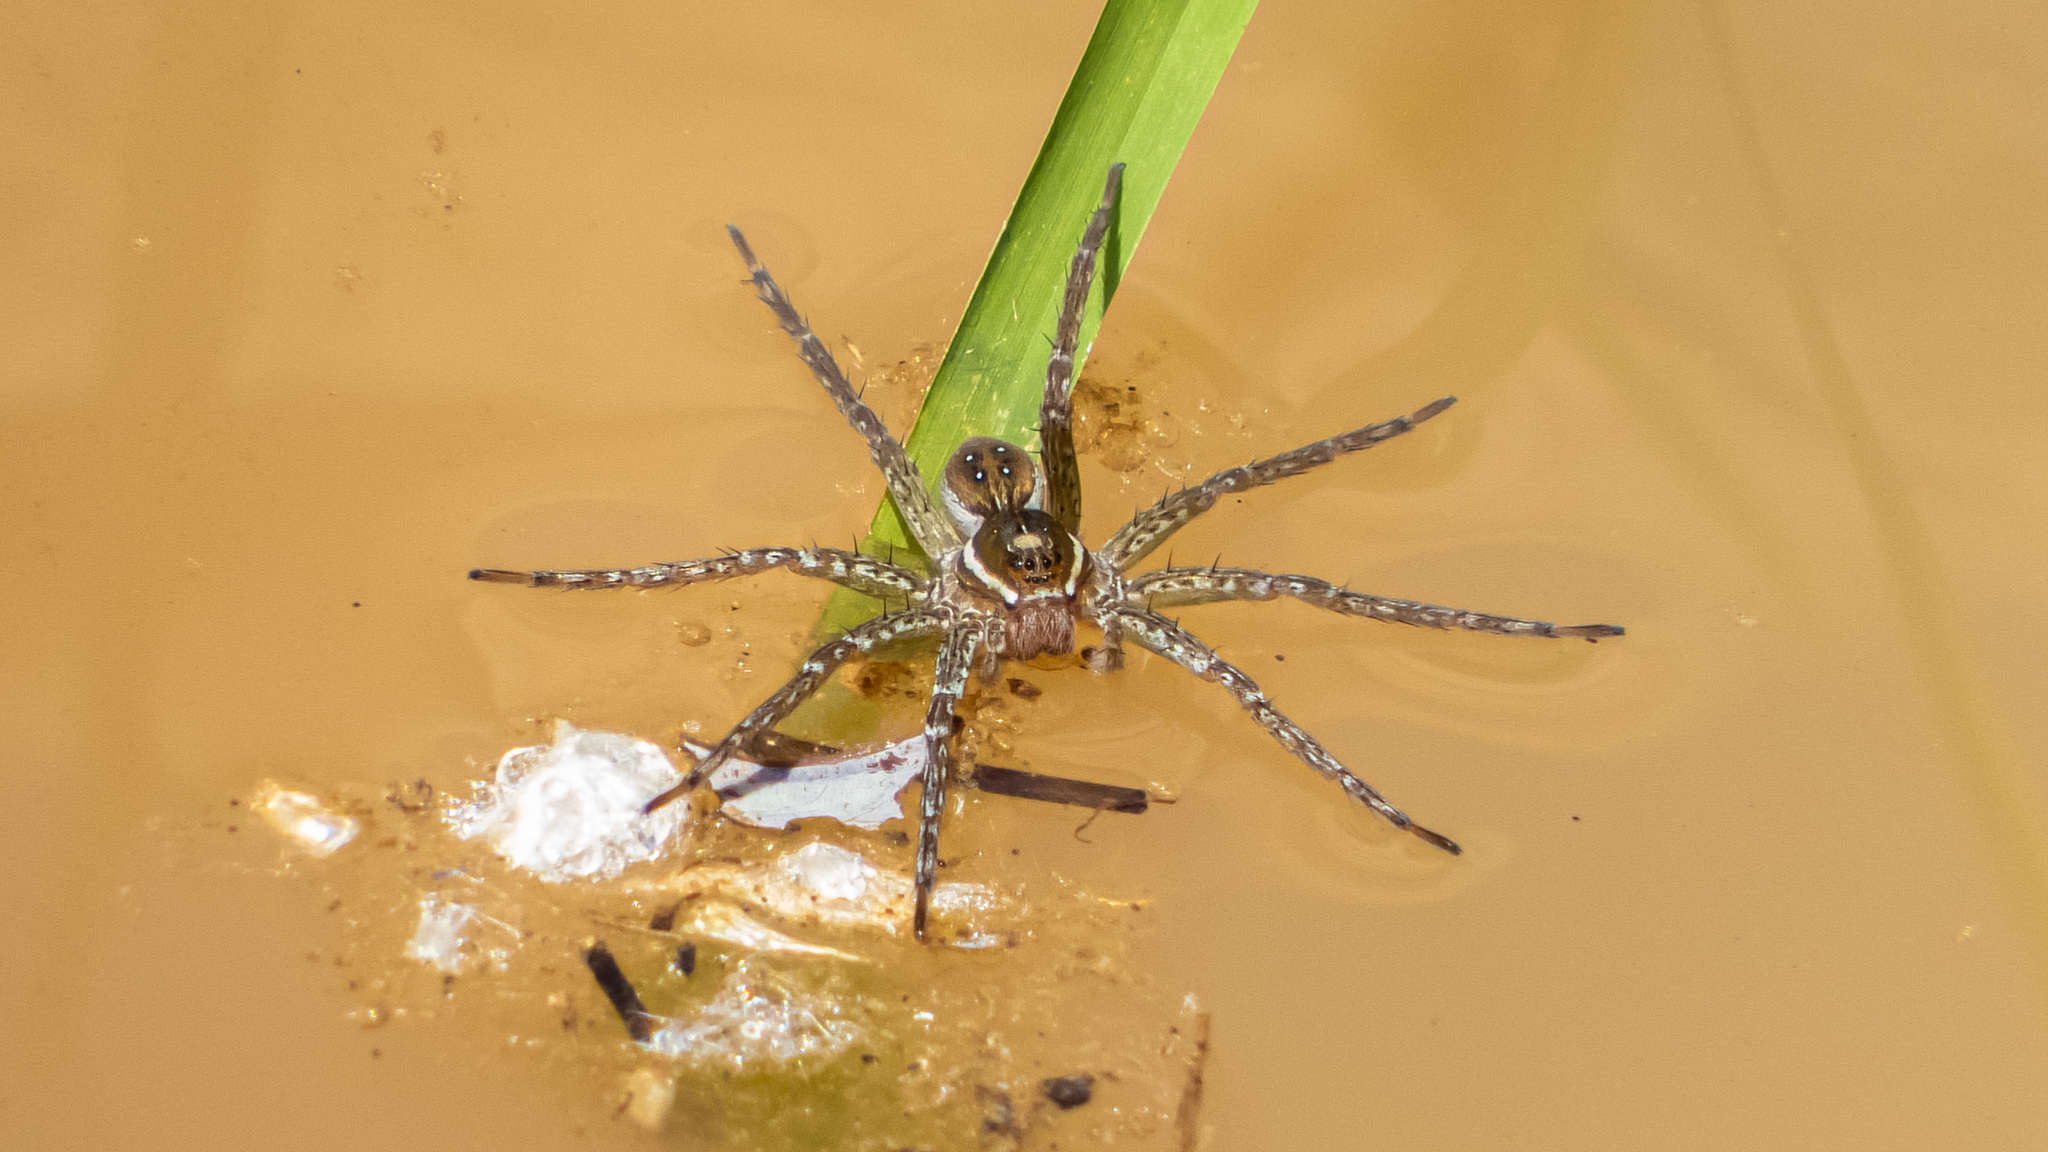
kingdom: Animalia
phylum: Arthropoda
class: Arachnida
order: Araneae
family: Pisauridae
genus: Dolomedes
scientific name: Dolomedes triton
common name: Six-spotted fishing spider
